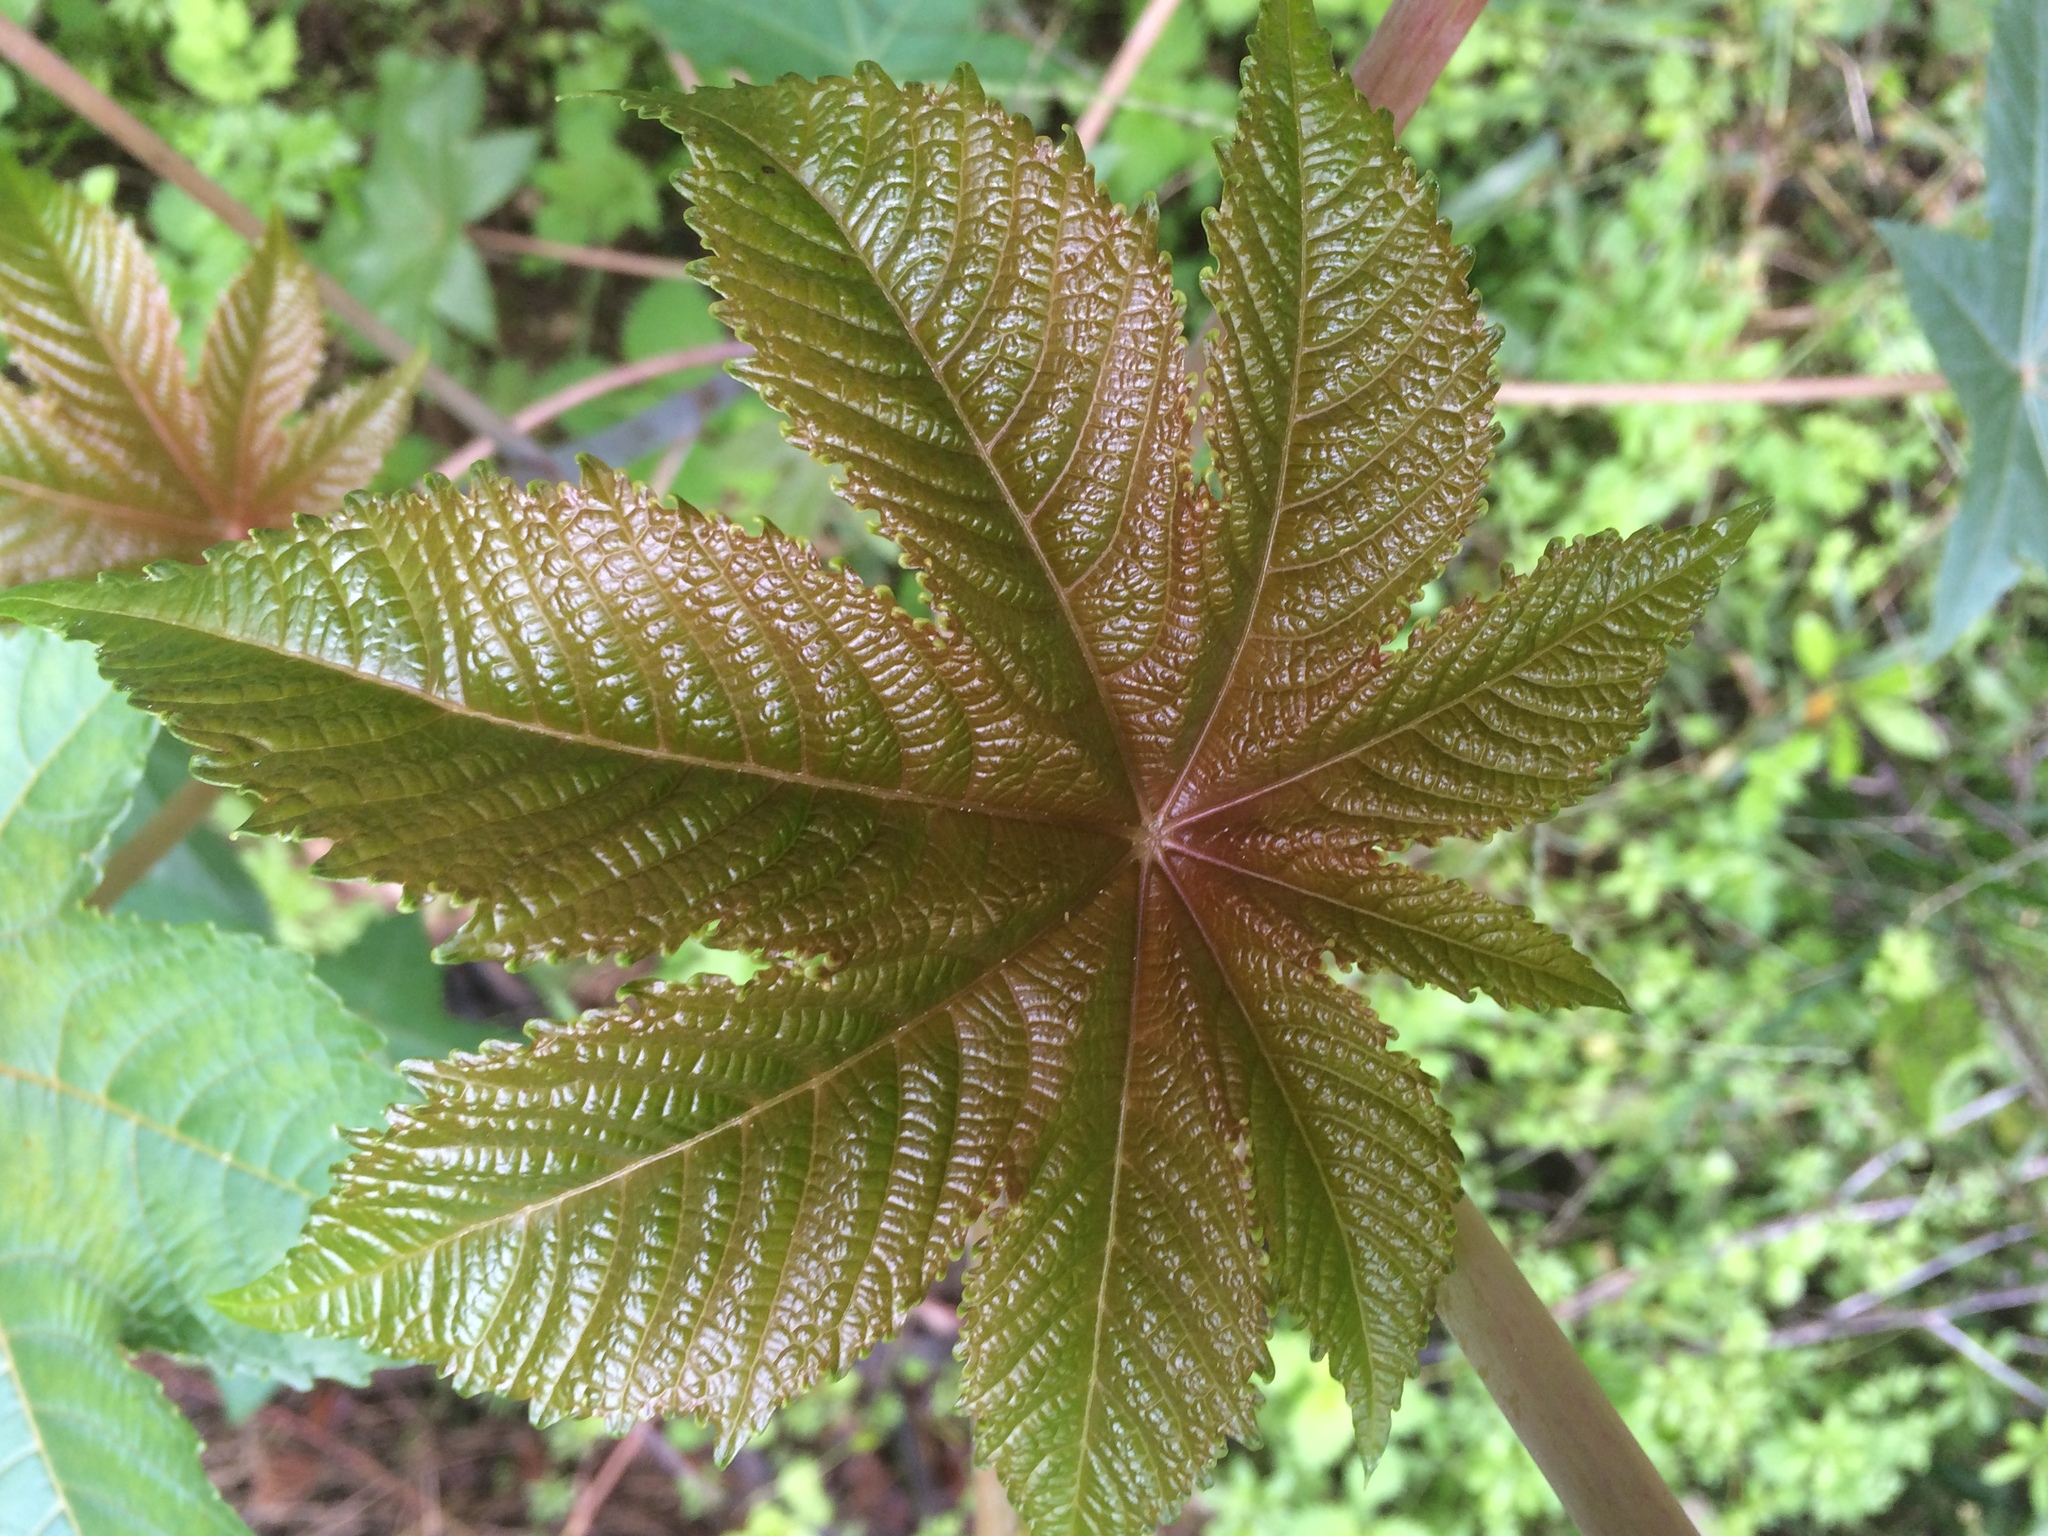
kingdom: Plantae
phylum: Tracheophyta
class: Magnoliopsida
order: Malpighiales
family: Euphorbiaceae
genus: Ricinus
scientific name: Ricinus communis
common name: Castor-oil-plant
